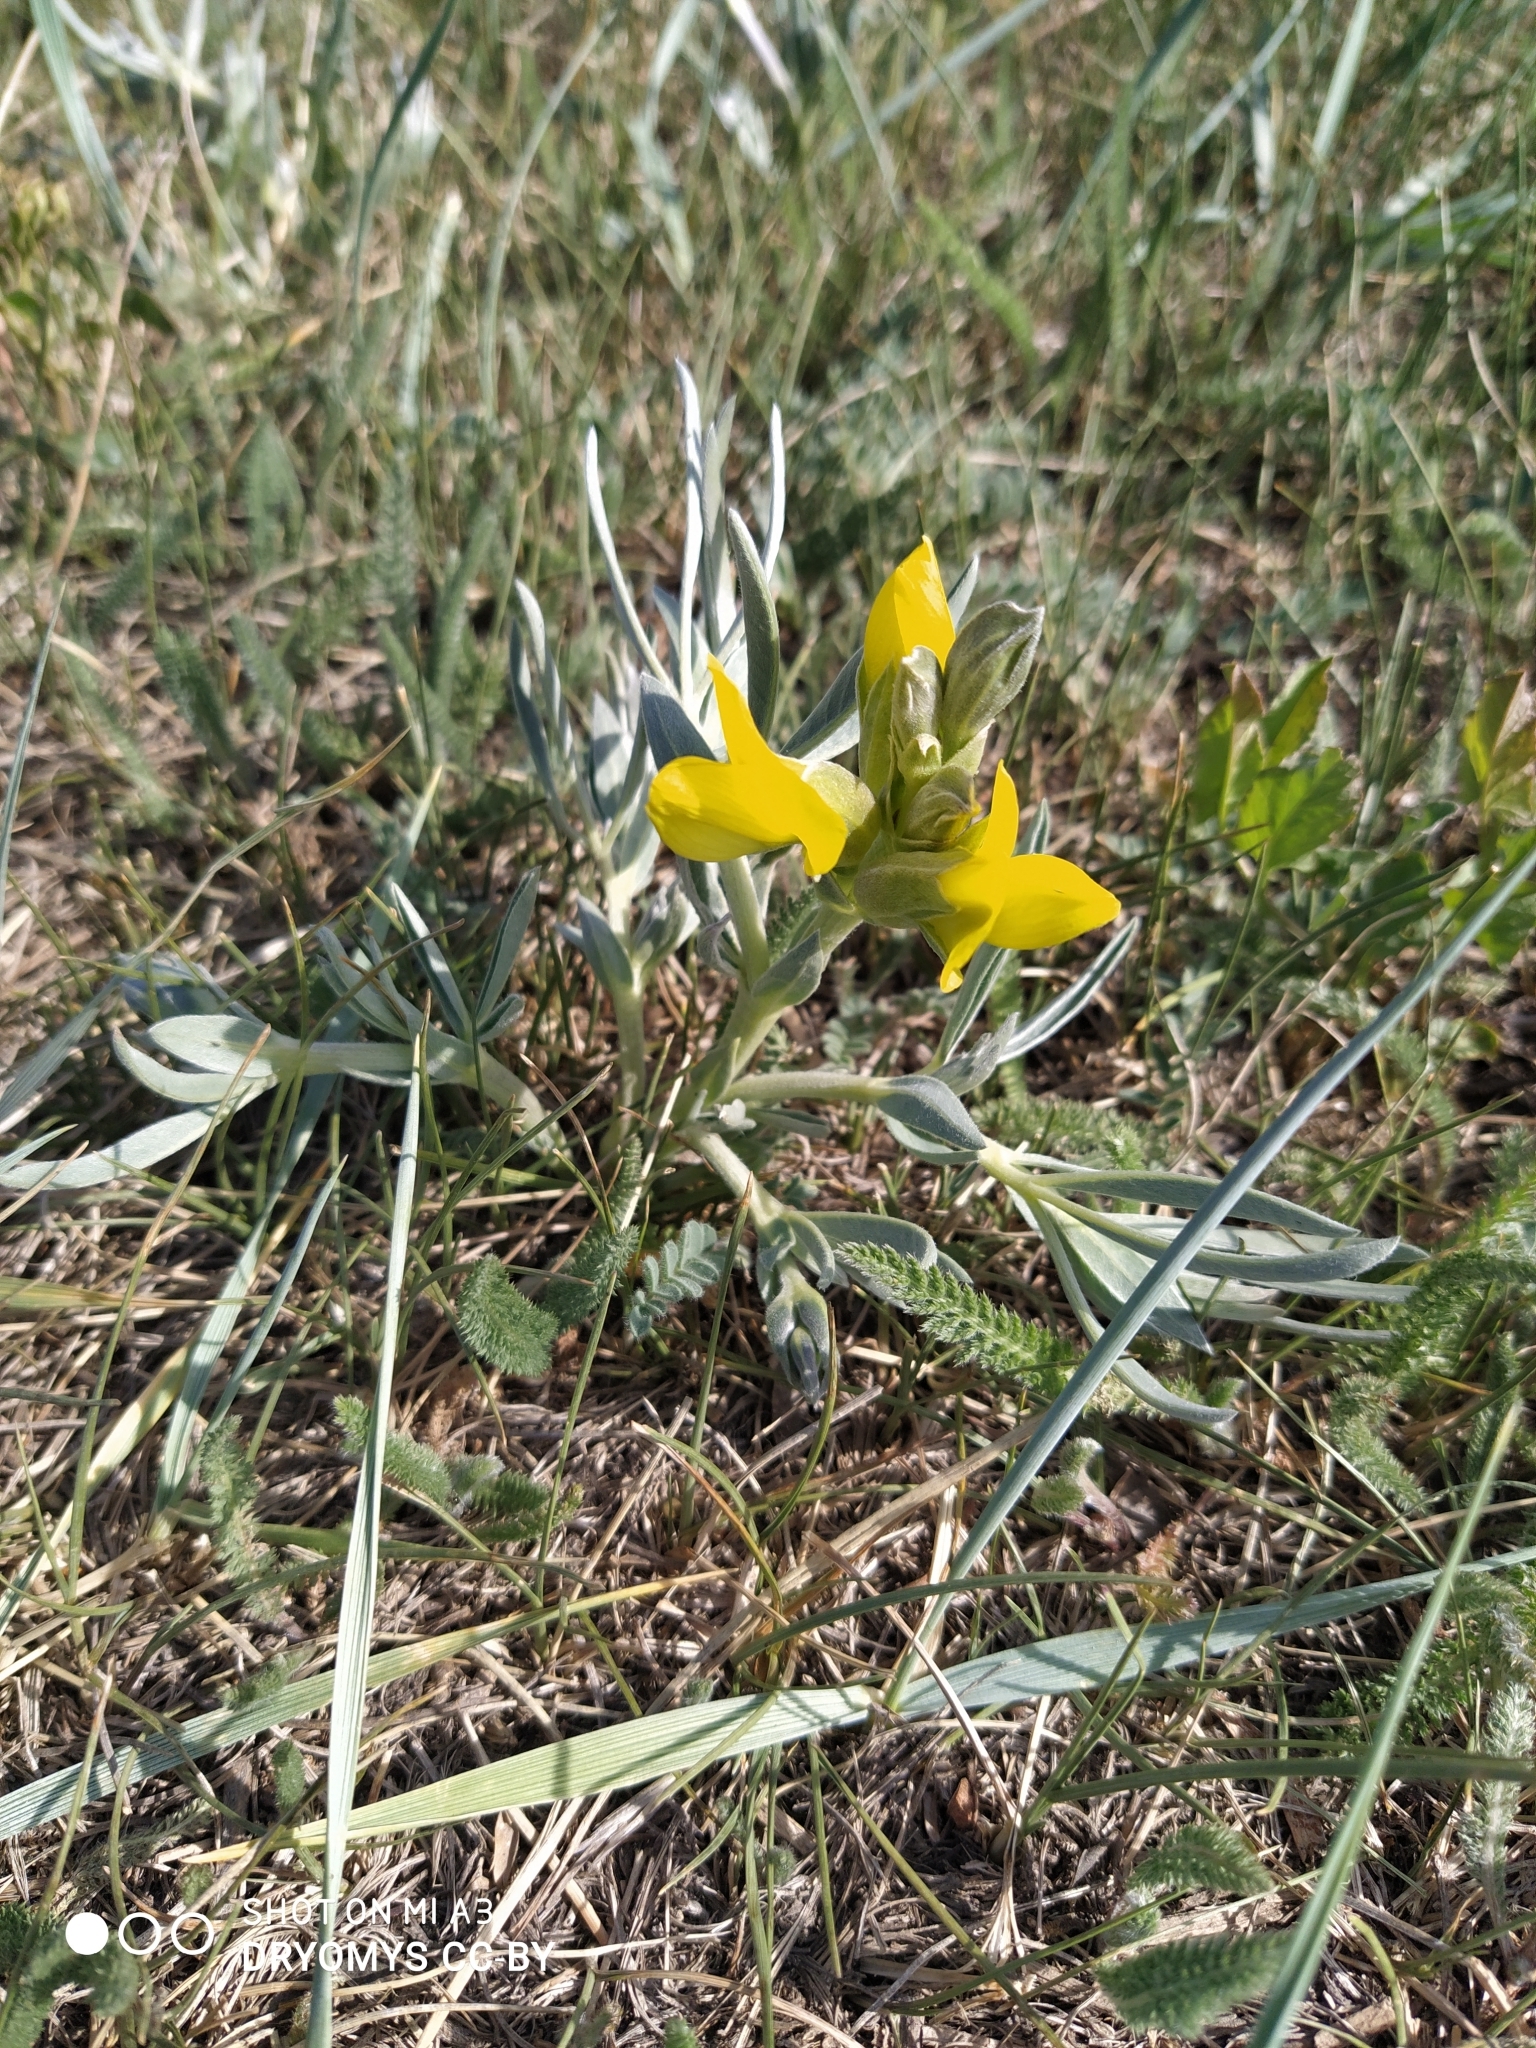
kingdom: Plantae
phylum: Tracheophyta
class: Magnoliopsida
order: Fabales
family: Fabaceae
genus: Thermopsis
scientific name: Thermopsis lanceolata
